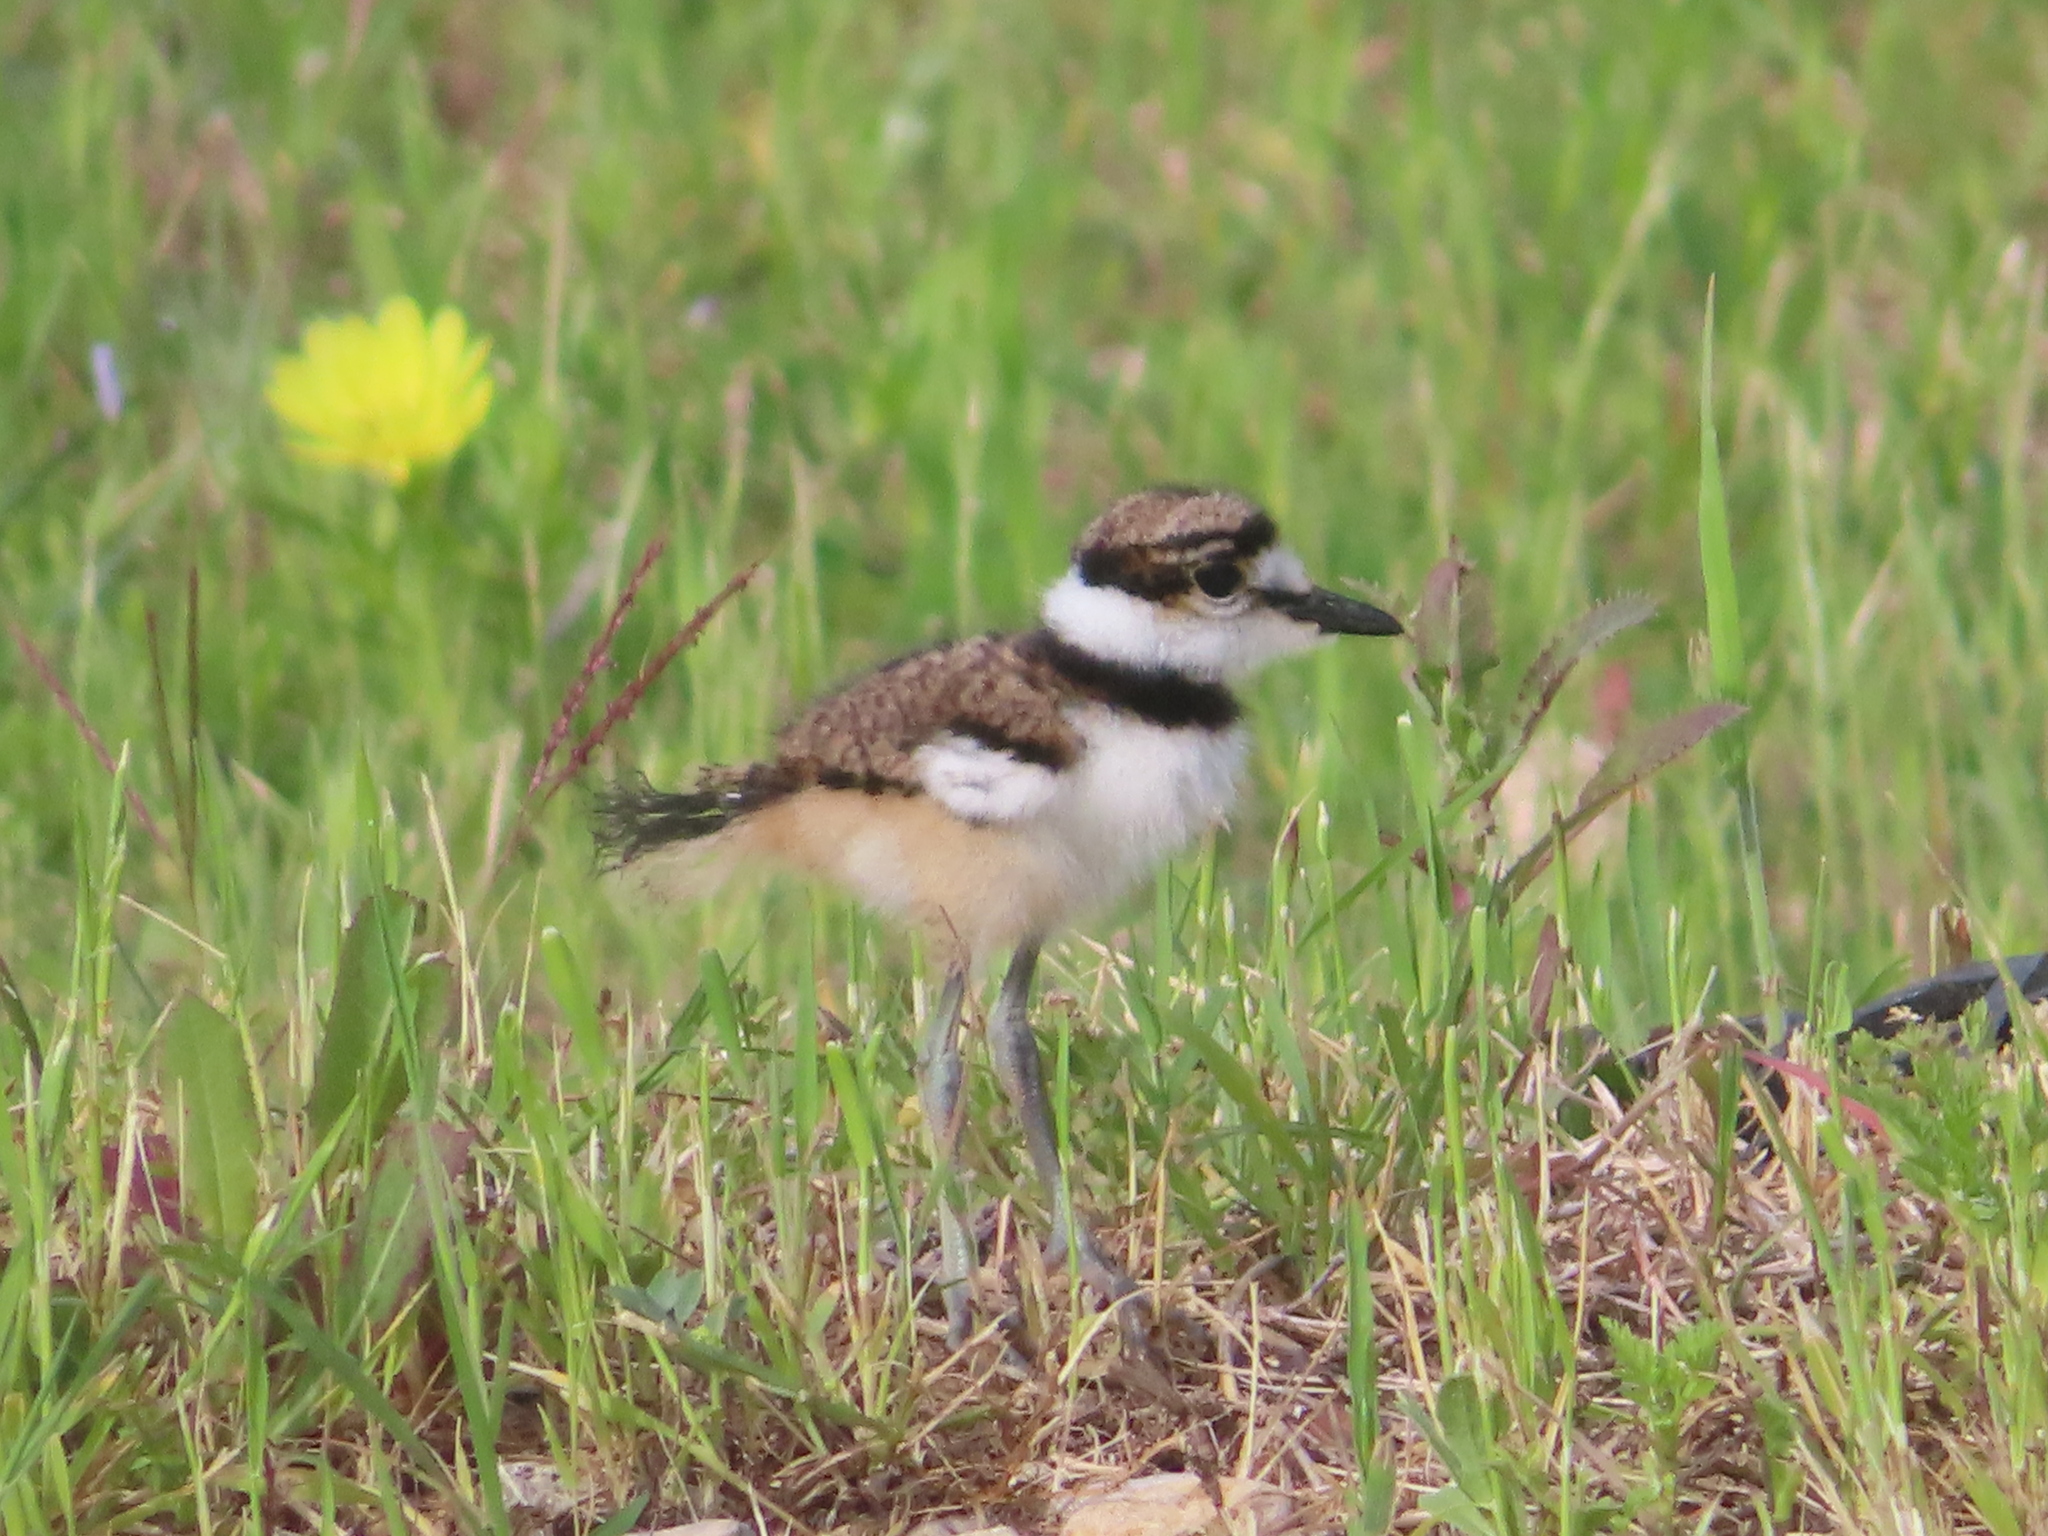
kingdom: Animalia
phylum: Chordata
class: Aves
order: Charadriiformes
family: Charadriidae
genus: Charadrius
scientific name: Charadrius vociferus
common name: Killdeer
